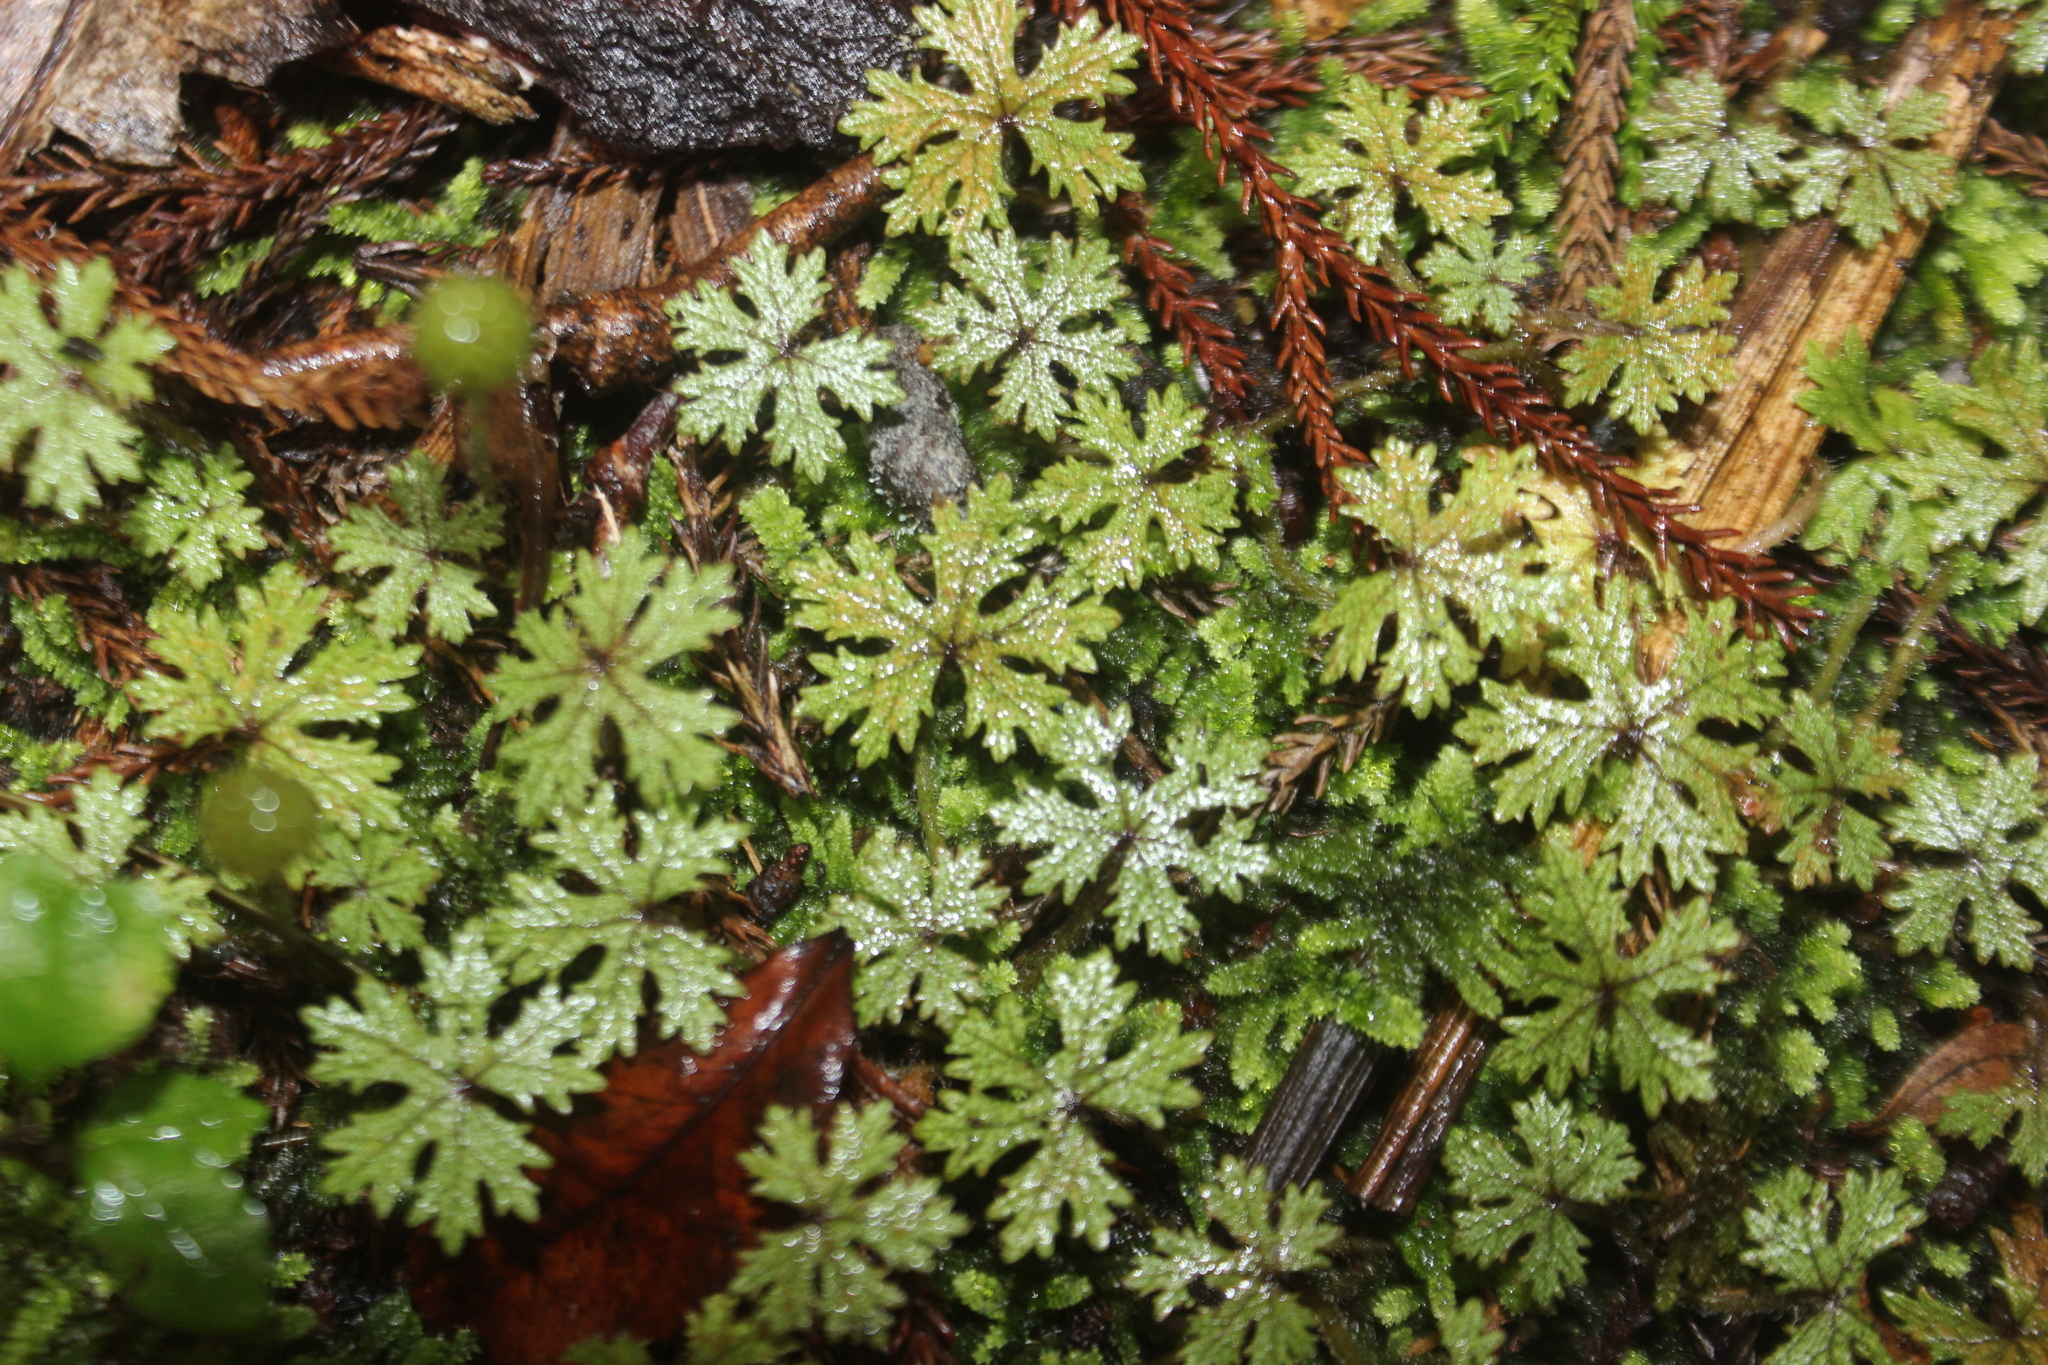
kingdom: Plantae
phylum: Tracheophyta
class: Magnoliopsida
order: Apiales
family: Araliaceae
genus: Hydrocotyle
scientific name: Hydrocotyle dissecta
